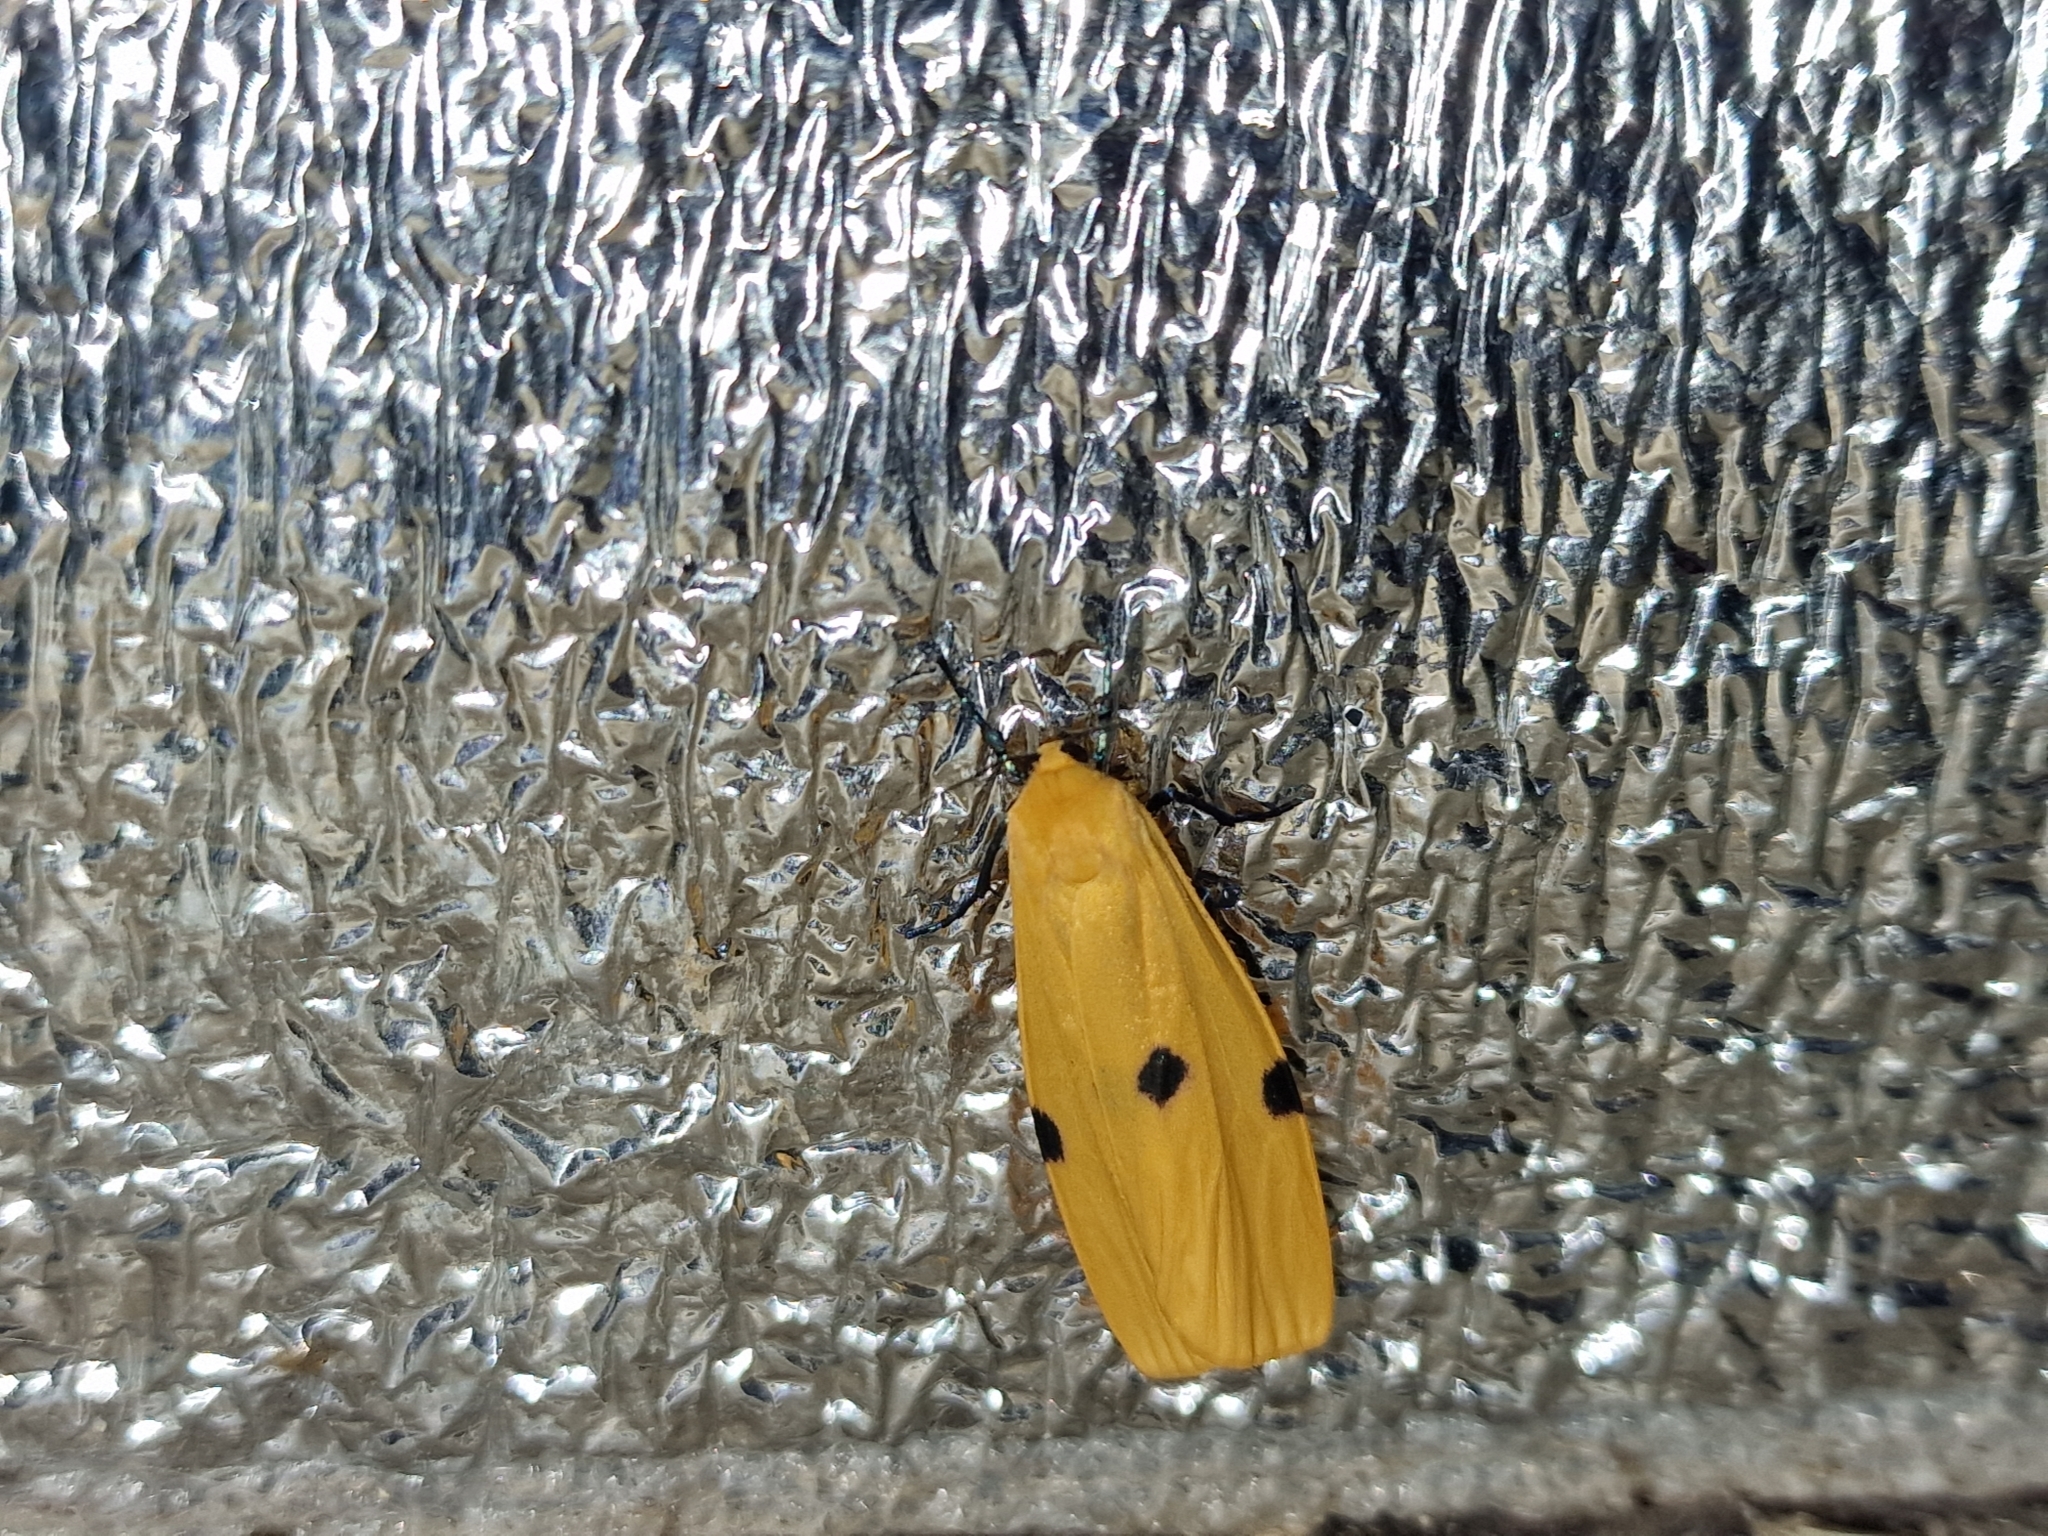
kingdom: Animalia
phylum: Arthropoda
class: Insecta
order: Lepidoptera
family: Erebidae
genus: Lithosia
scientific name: Lithosia quadra
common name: Four-spotted footman
